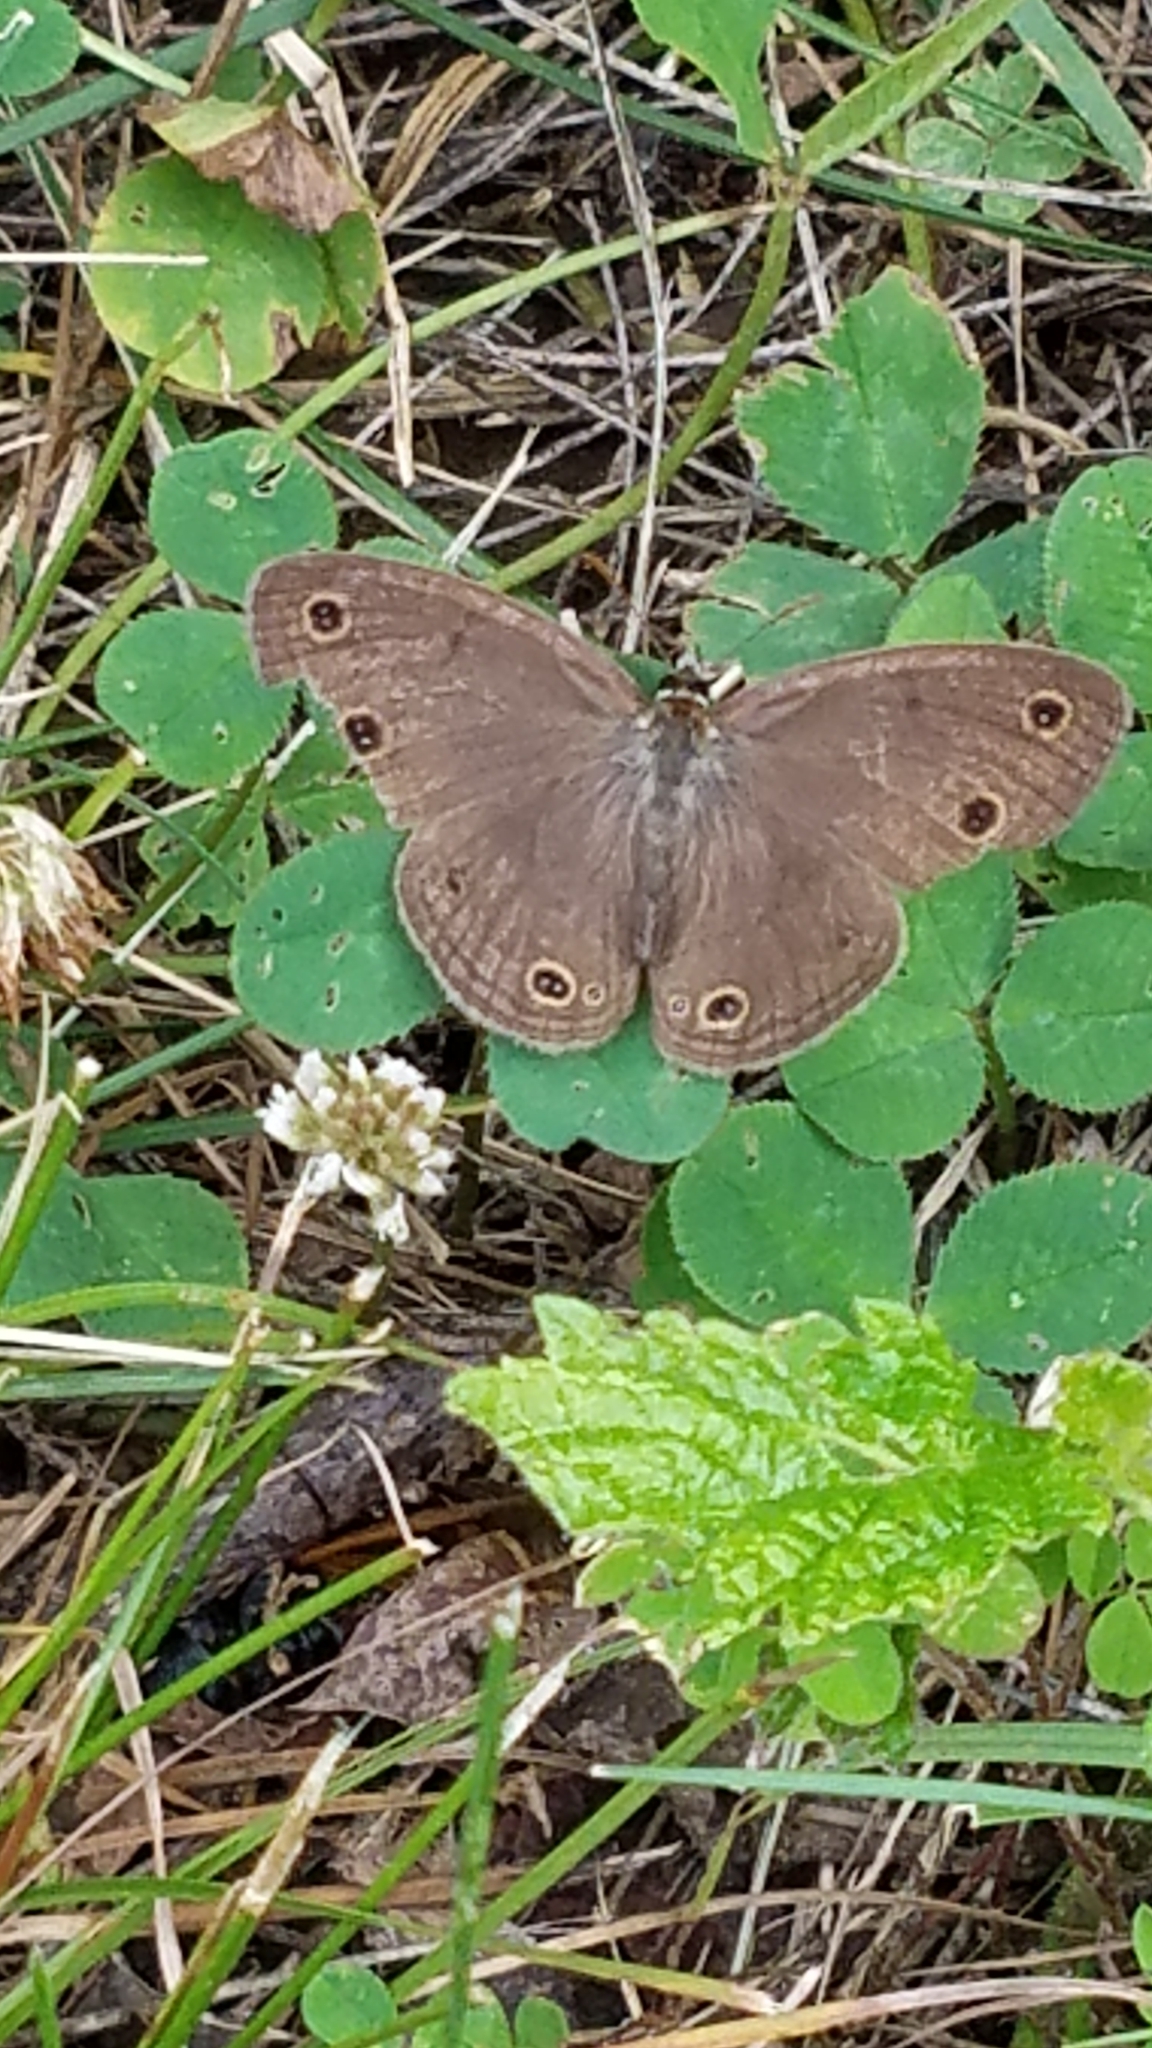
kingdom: Animalia
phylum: Arthropoda
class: Insecta
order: Lepidoptera
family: Nymphalidae
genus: Euptychia
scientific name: Euptychia cymela
